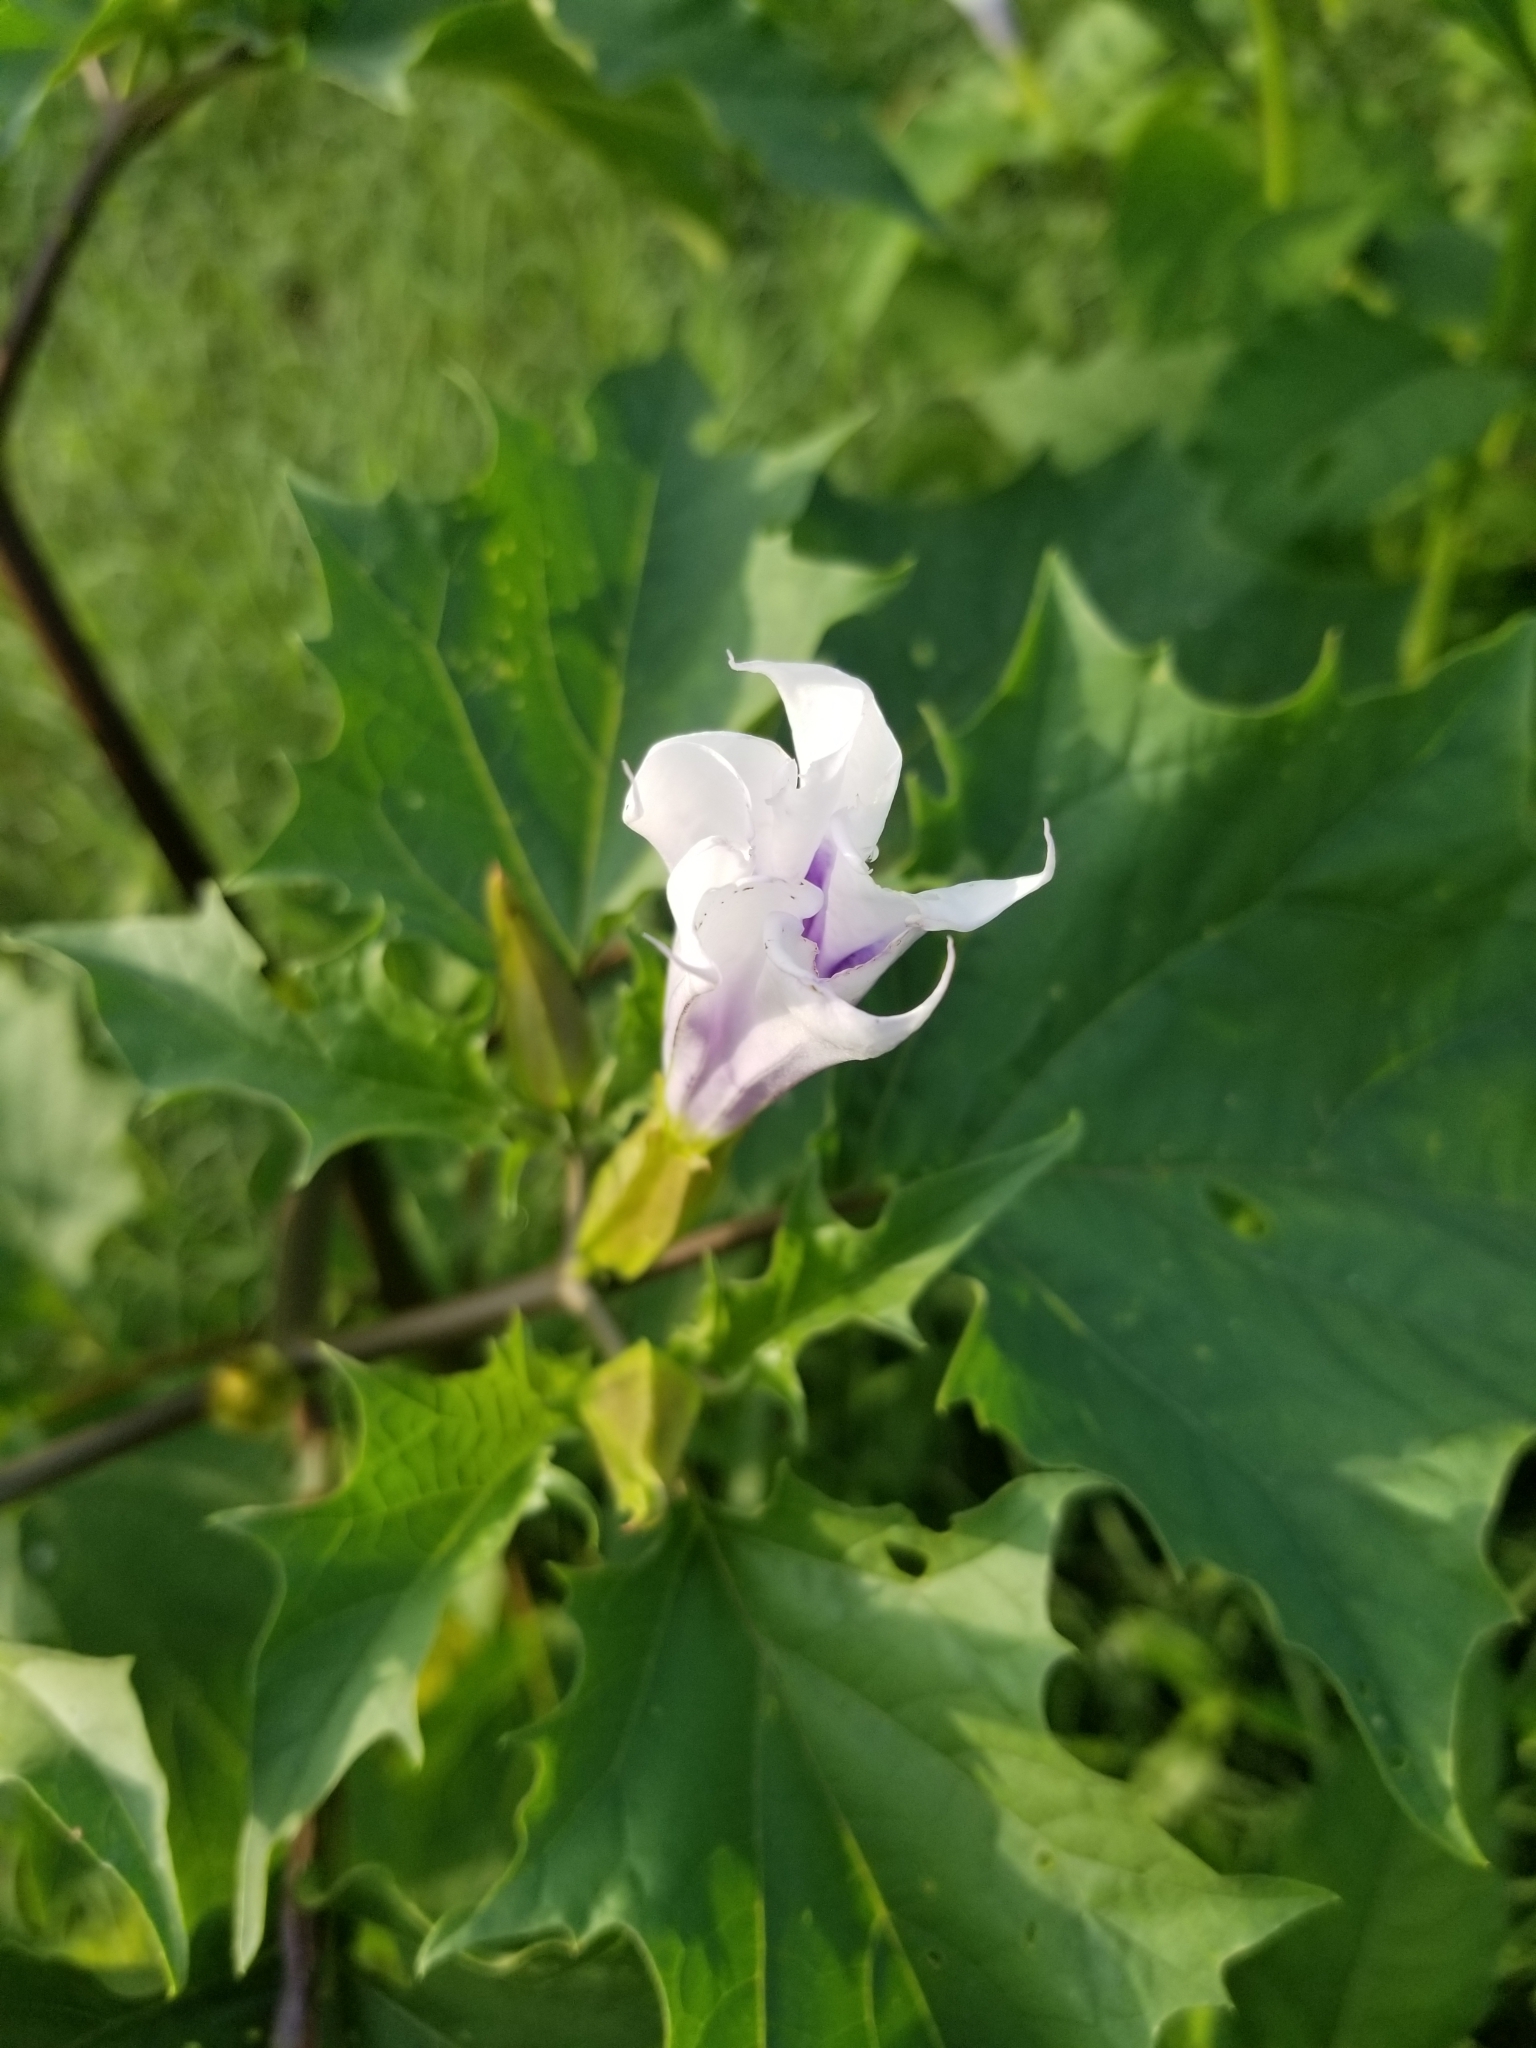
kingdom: Plantae
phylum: Tracheophyta
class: Magnoliopsida
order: Solanales
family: Solanaceae
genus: Datura
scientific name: Datura stramonium
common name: Thorn-apple
